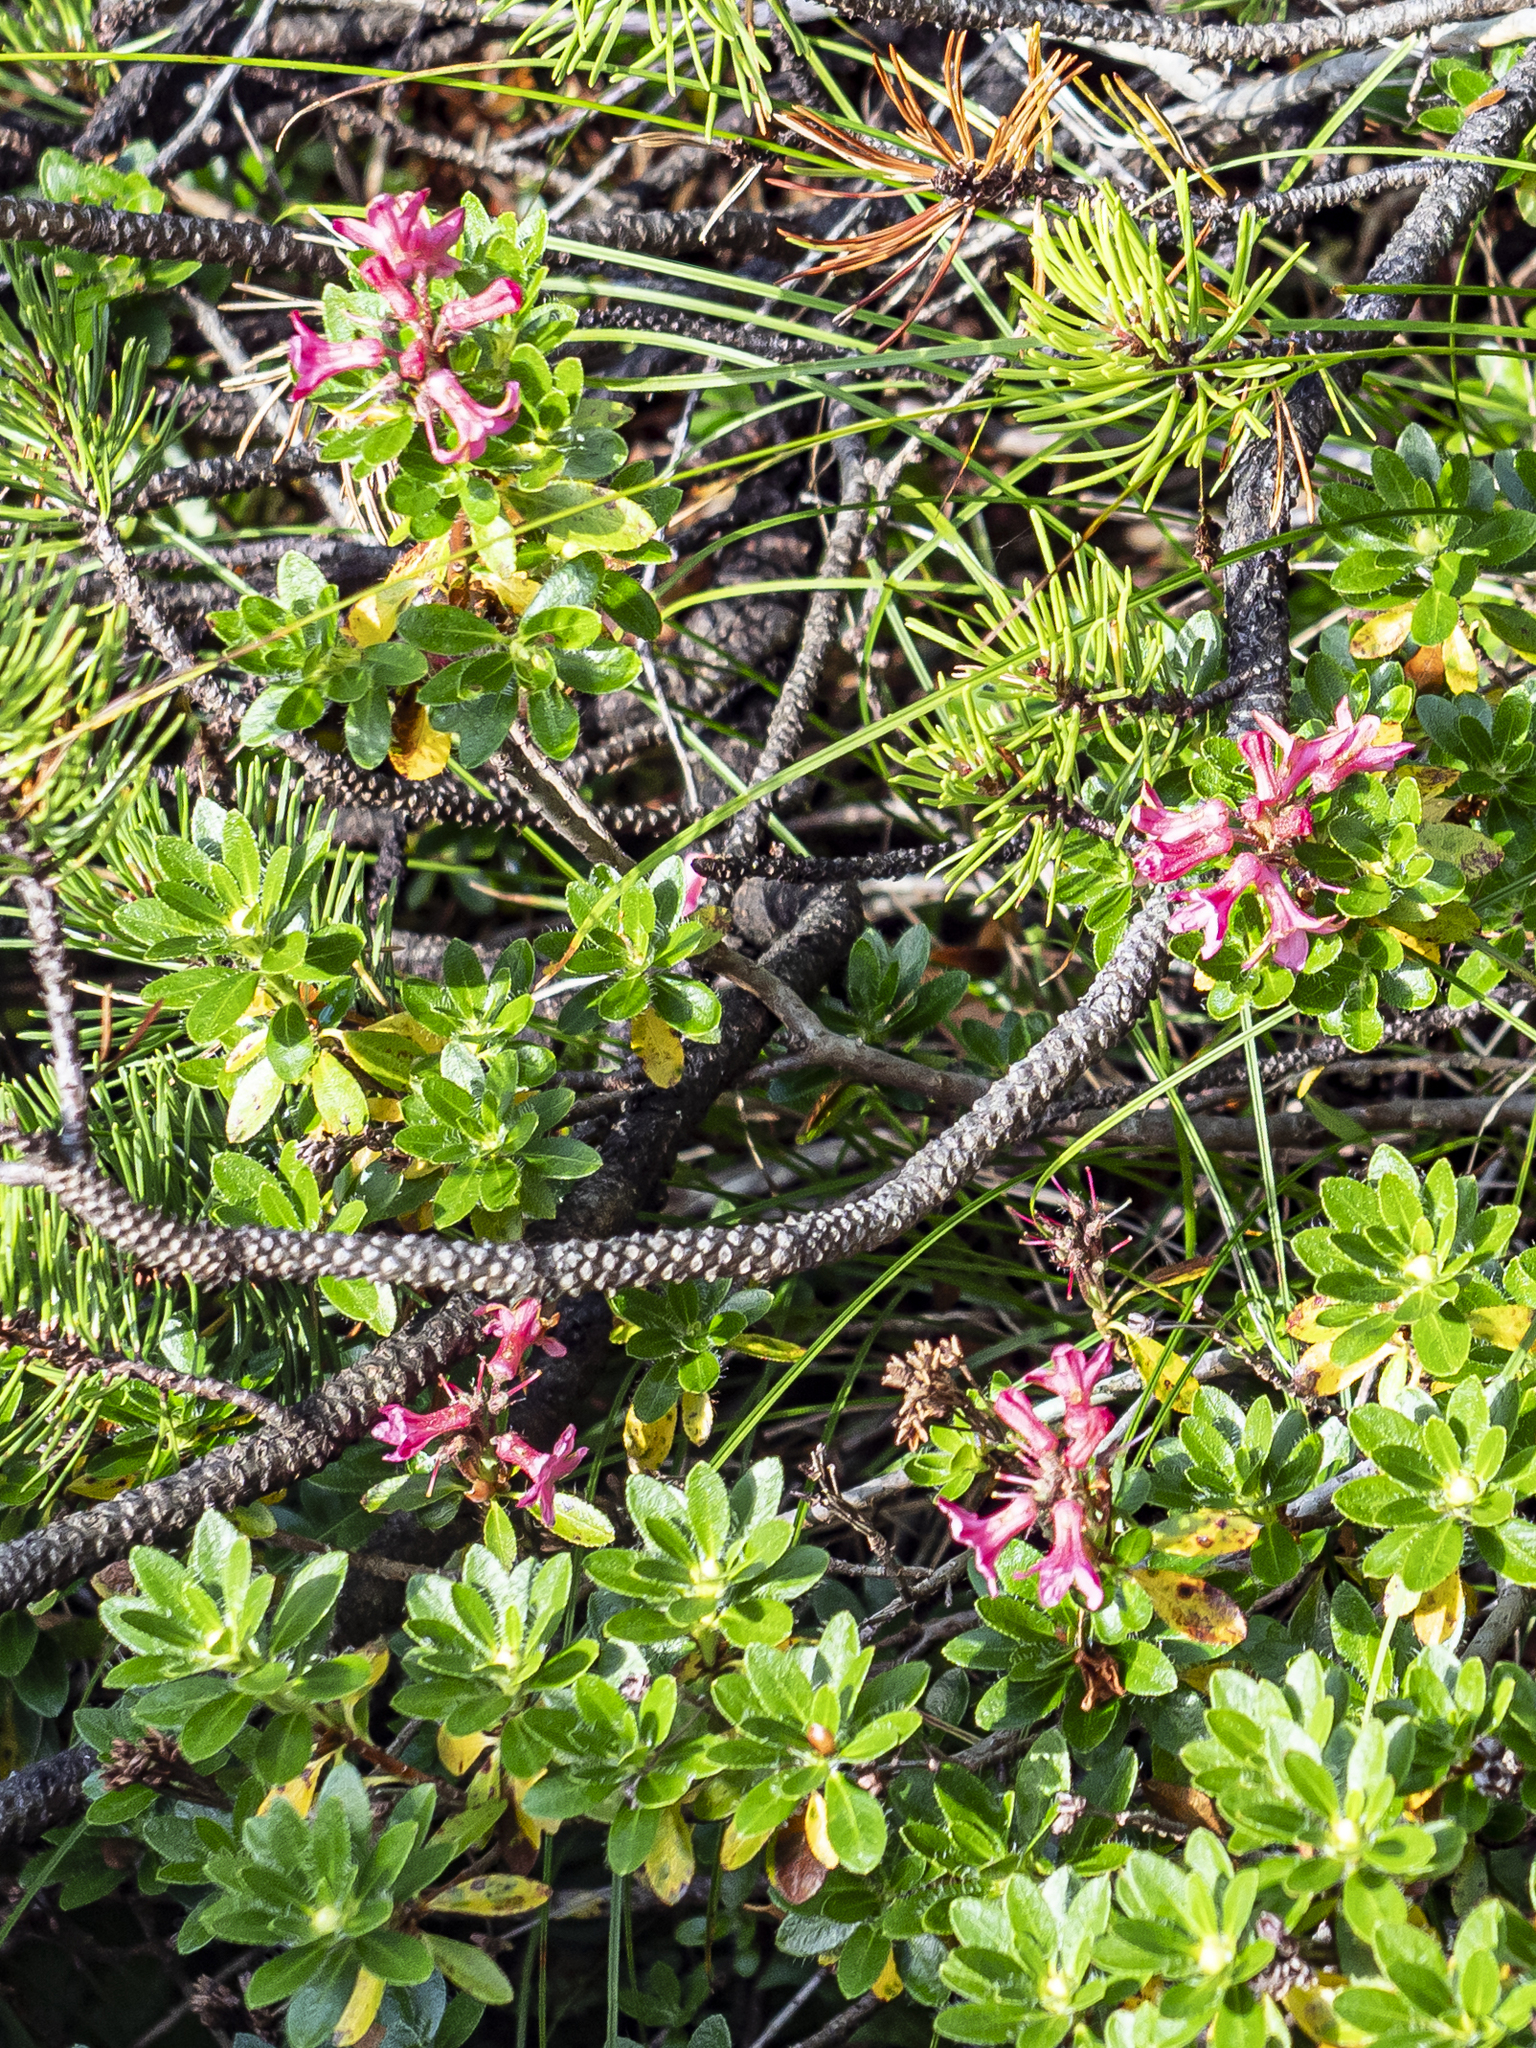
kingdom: Plantae
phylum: Tracheophyta
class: Magnoliopsida
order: Ericales
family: Ericaceae
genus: Rhododendron
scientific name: Rhododendron hirsutum
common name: Hairy alpenrose
